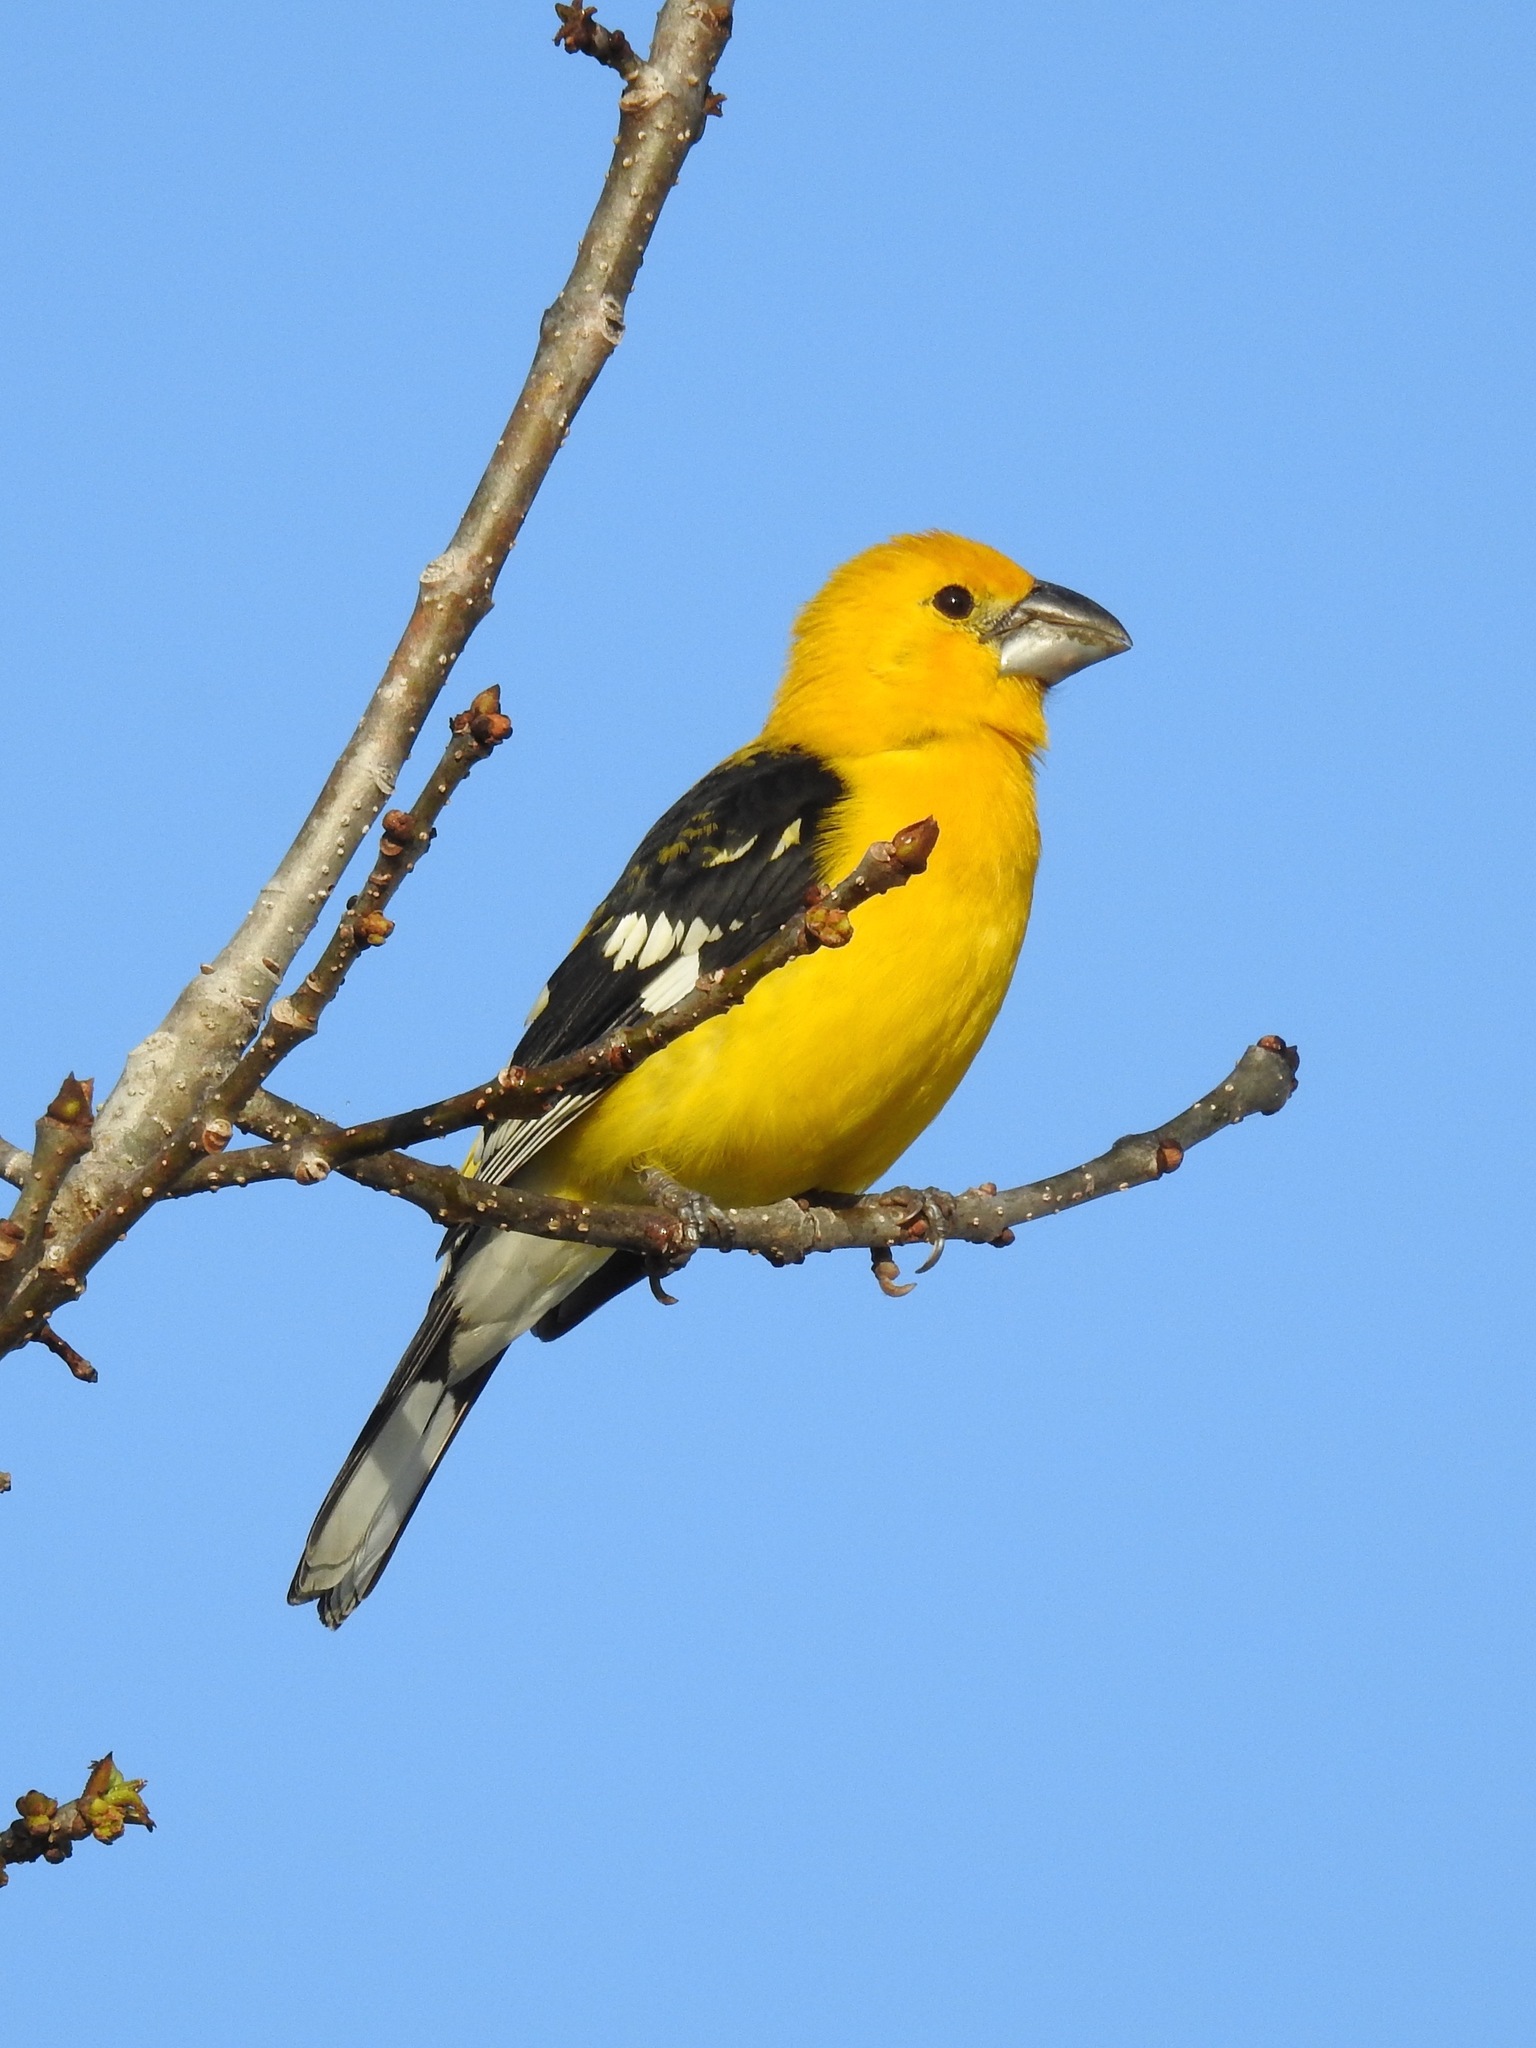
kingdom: Animalia
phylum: Chordata
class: Aves
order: Passeriformes
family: Cardinalidae
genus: Pheucticus
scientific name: Pheucticus chrysopeplus
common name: Yellow grosbeak
